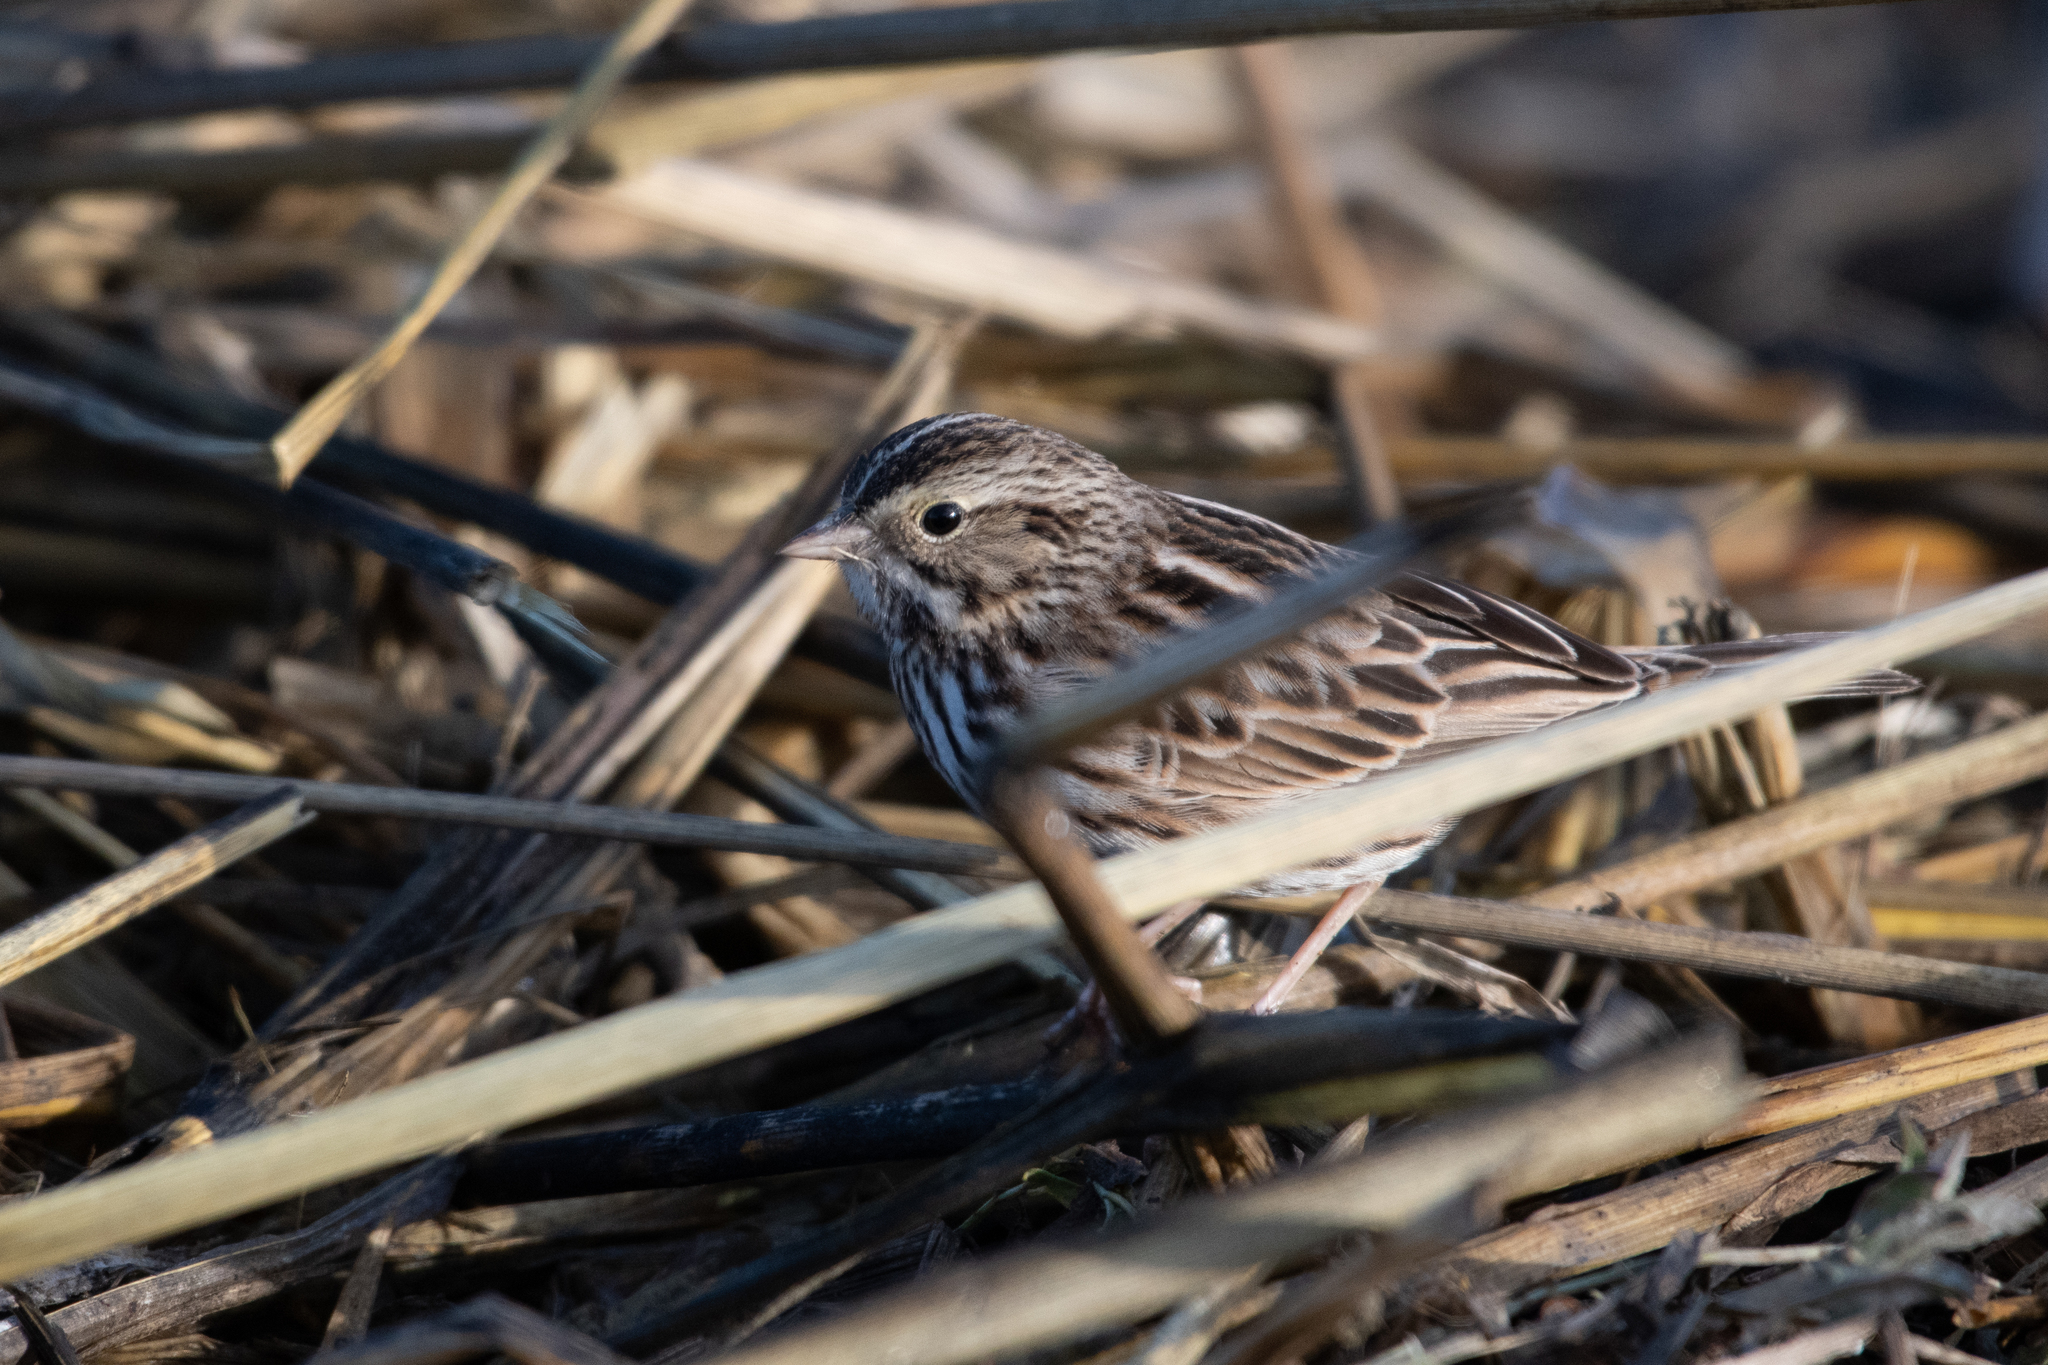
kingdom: Animalia
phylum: Chordata
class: Aves
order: Passeriformes
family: Passerellidae
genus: Passerculus
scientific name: Passerculus sandwichensis
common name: Savannah sparrow
